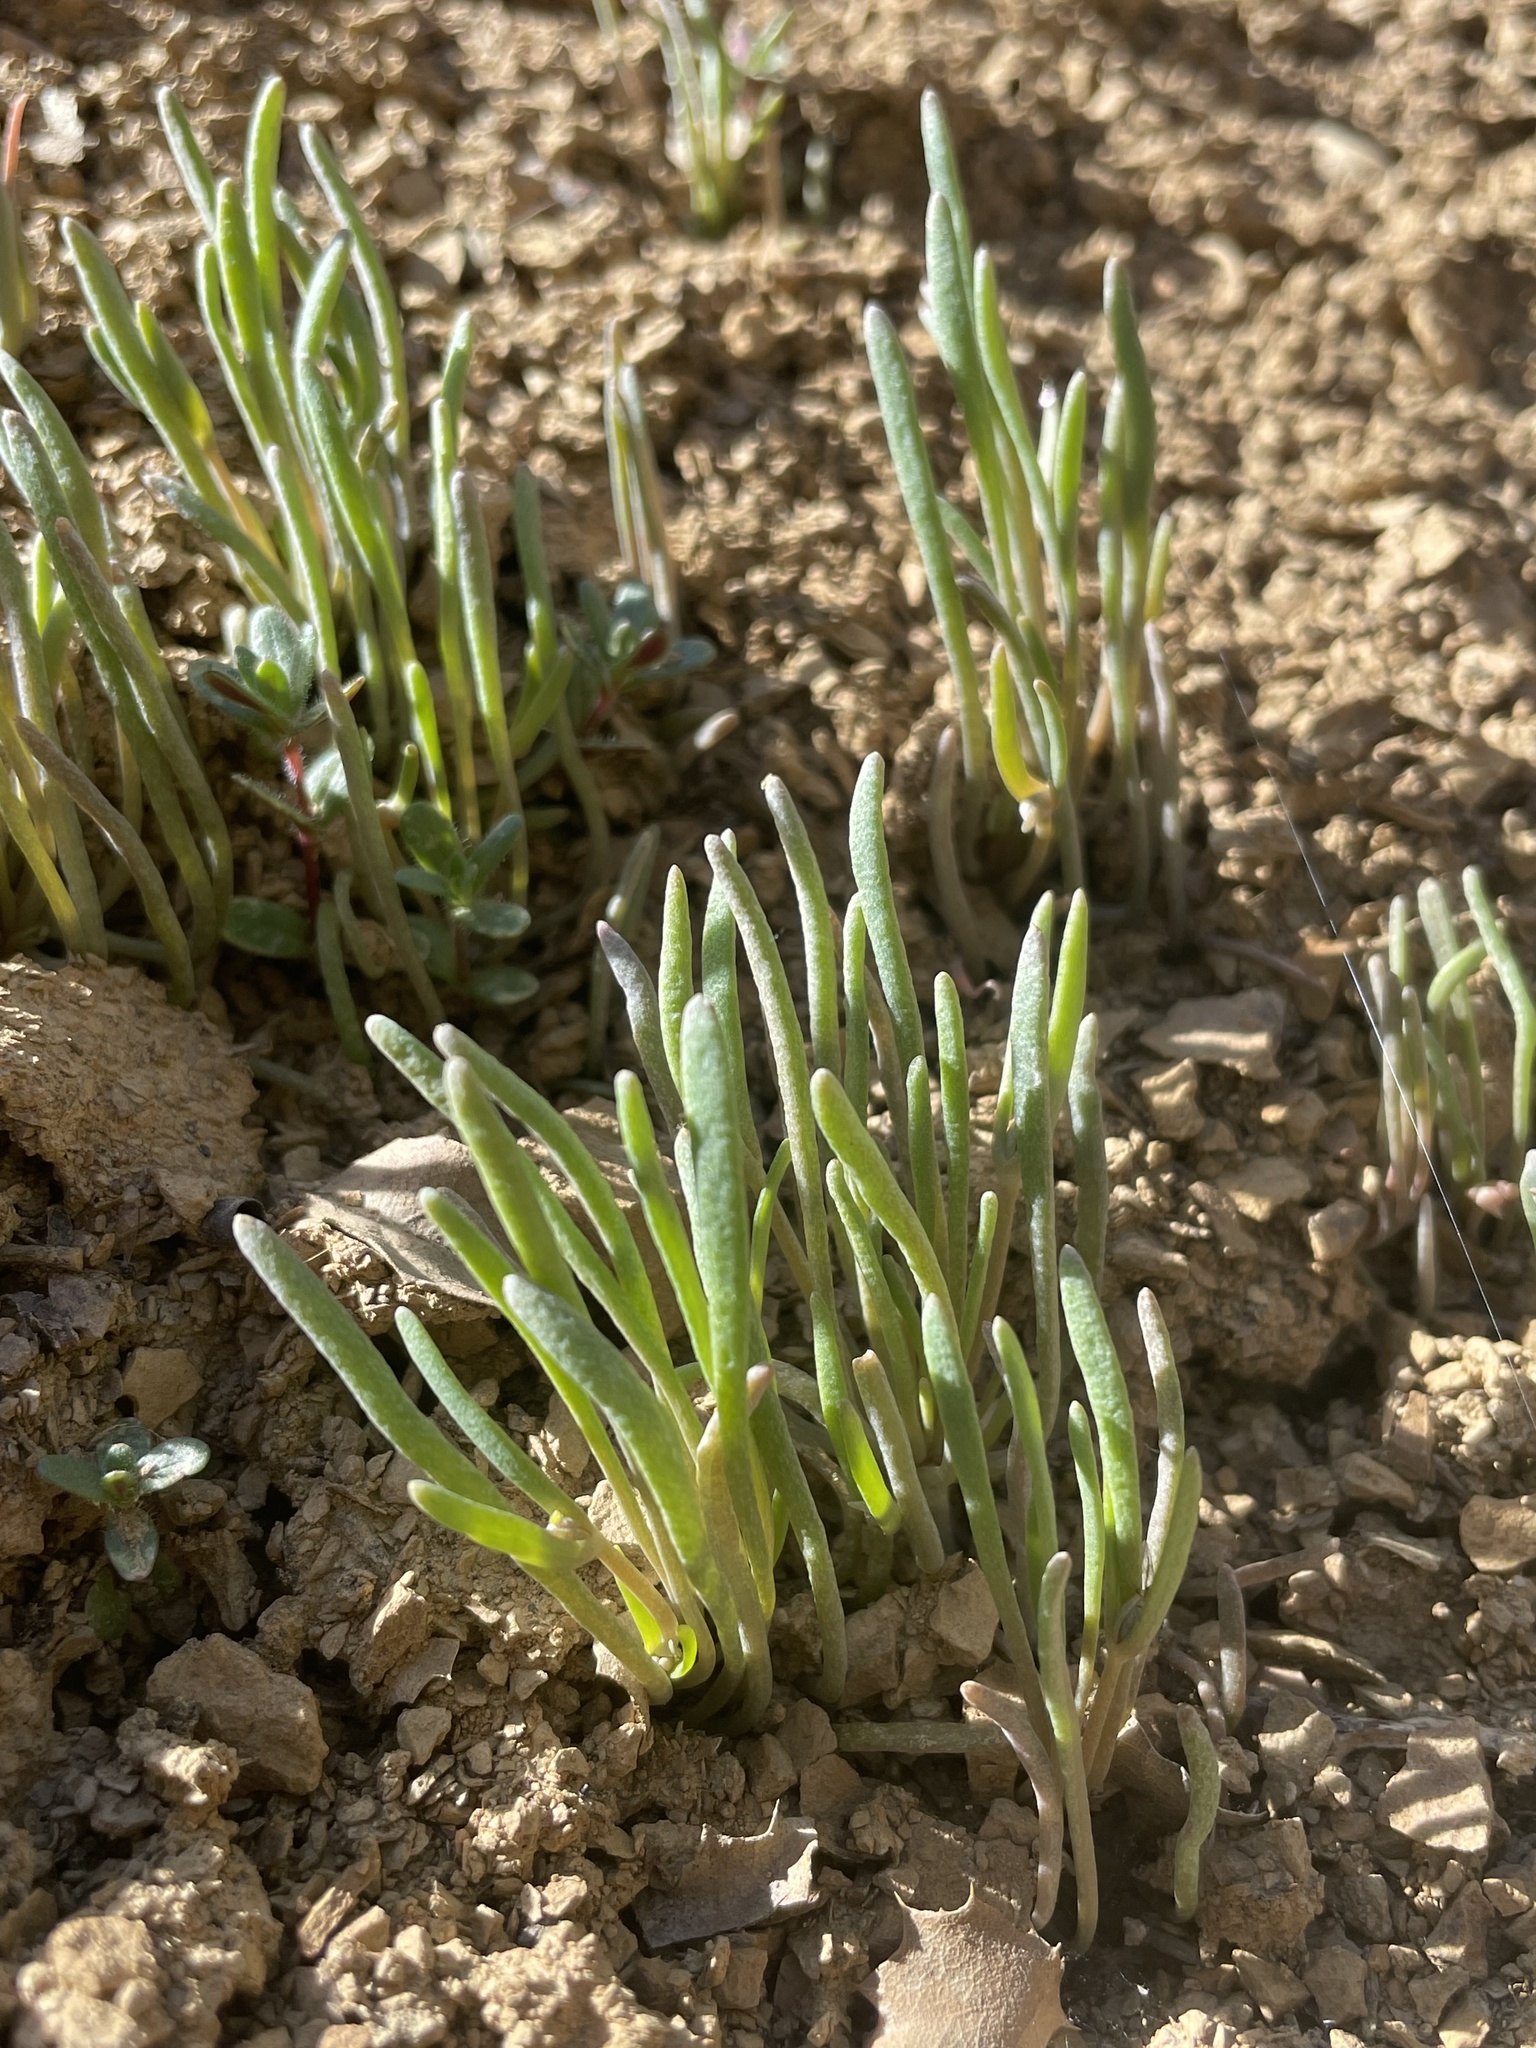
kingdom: Plantae
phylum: Tracheophyta
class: Magnoliopsida
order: Caryophyllales
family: Montiaceae
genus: Claytonia
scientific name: Claytonia exigua
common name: Pale spring beauty
